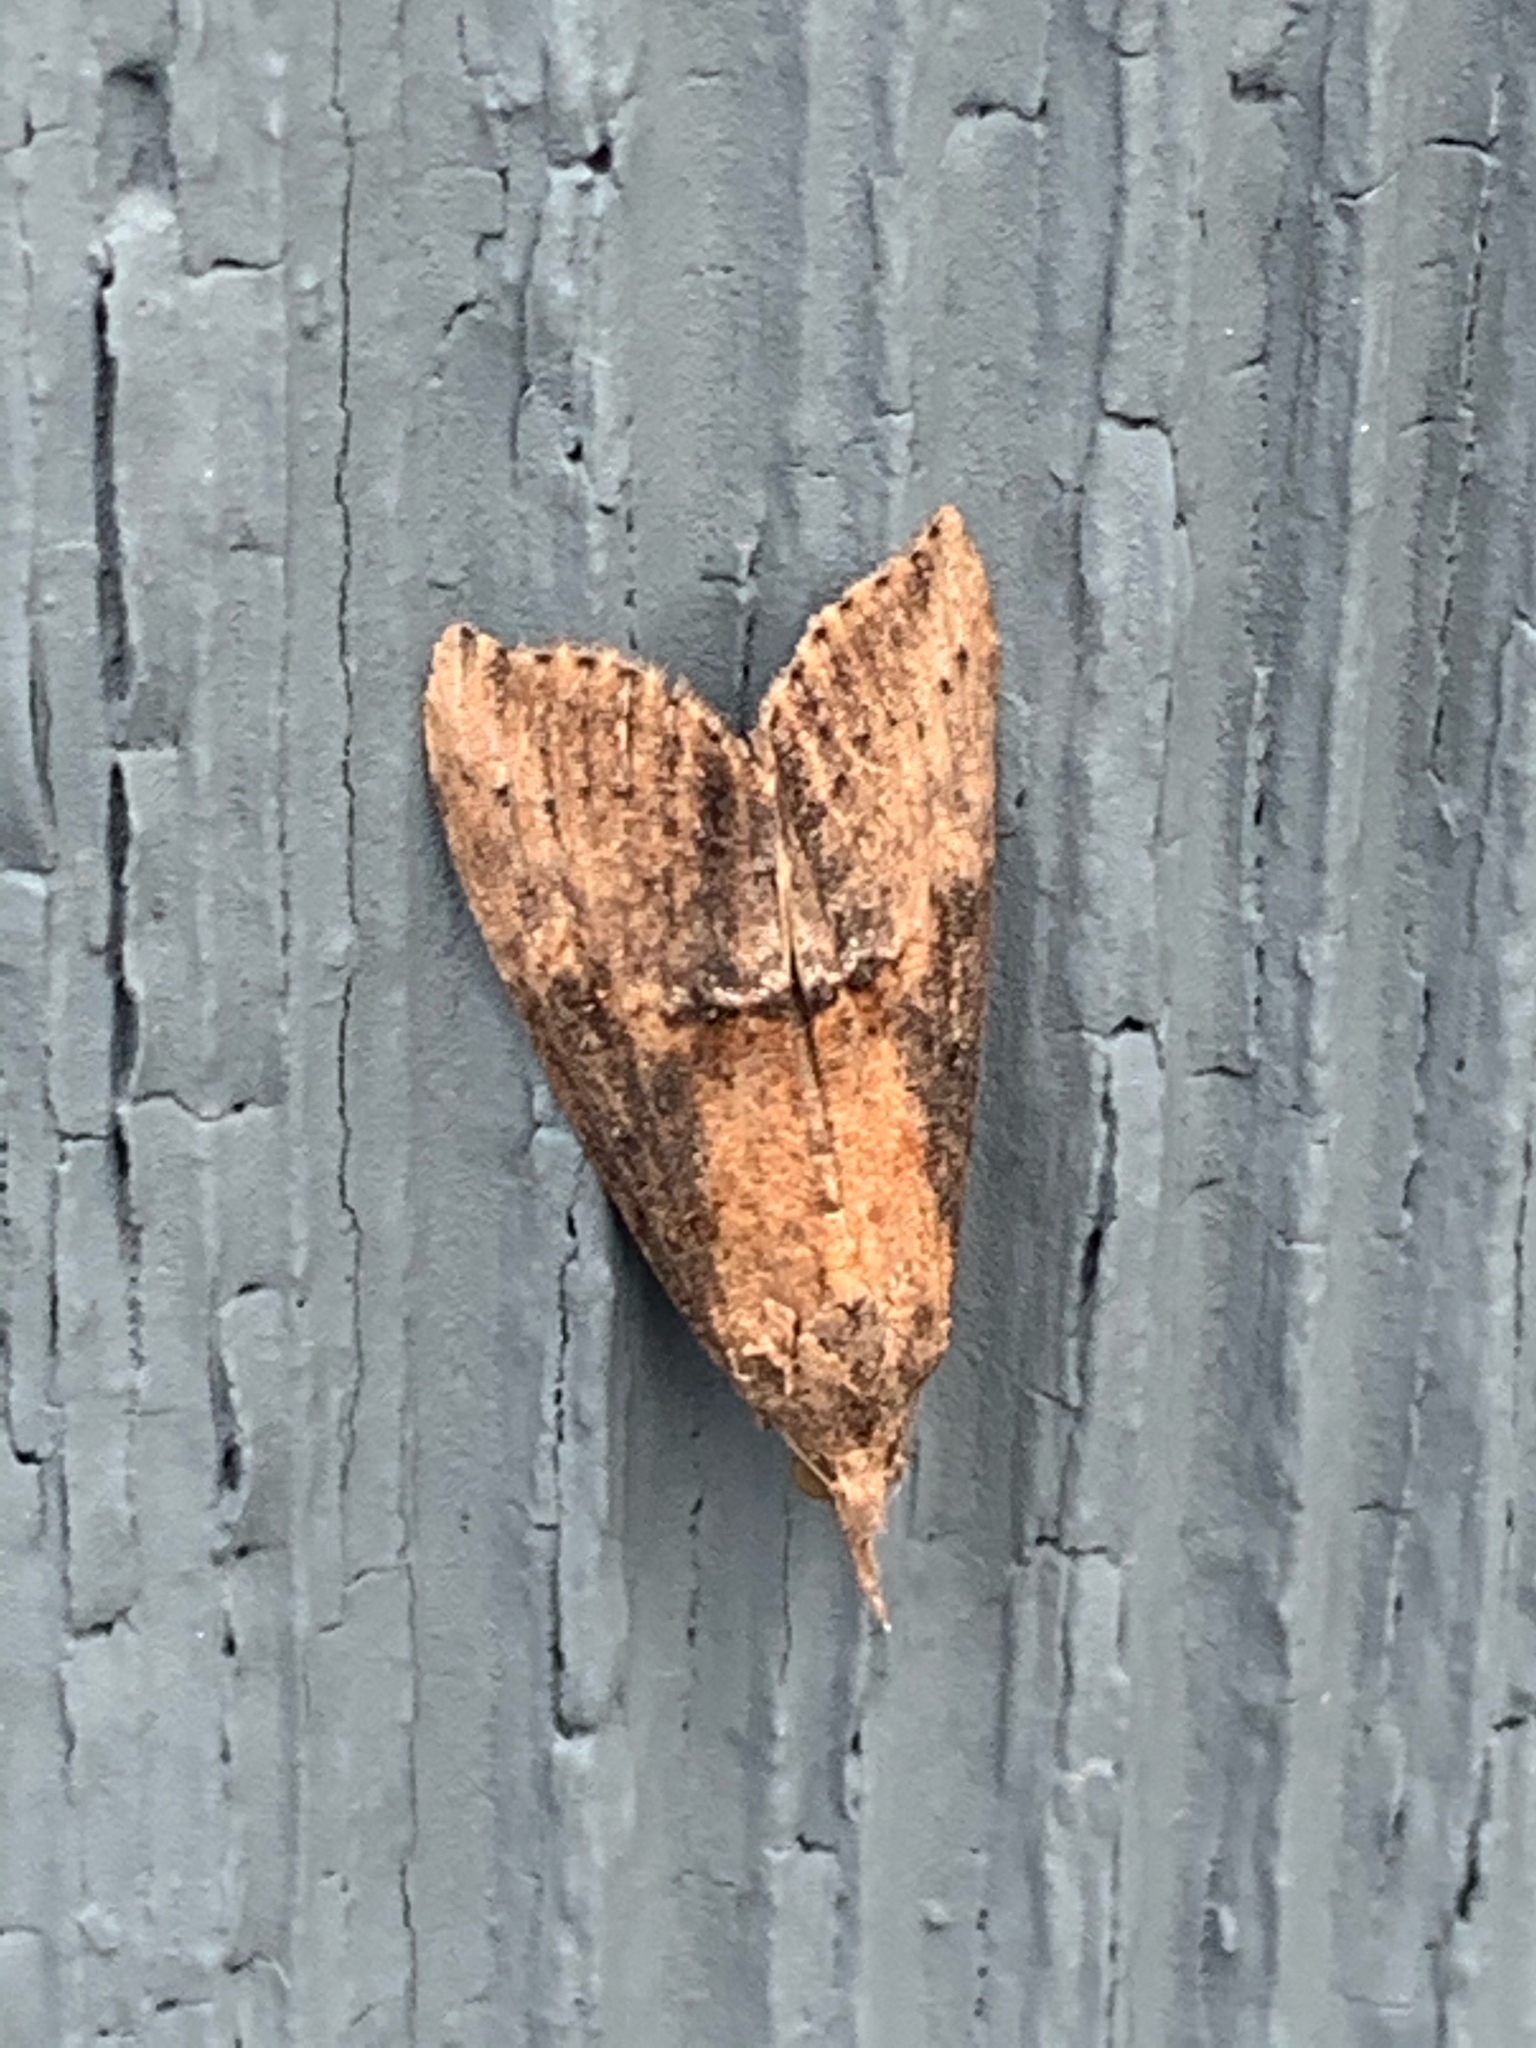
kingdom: Animalia
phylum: Arthropoda
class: Insecta
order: Lepidoptera
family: Erebidae
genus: Hypena
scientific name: Hypena scabra
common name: Green cloverworm
